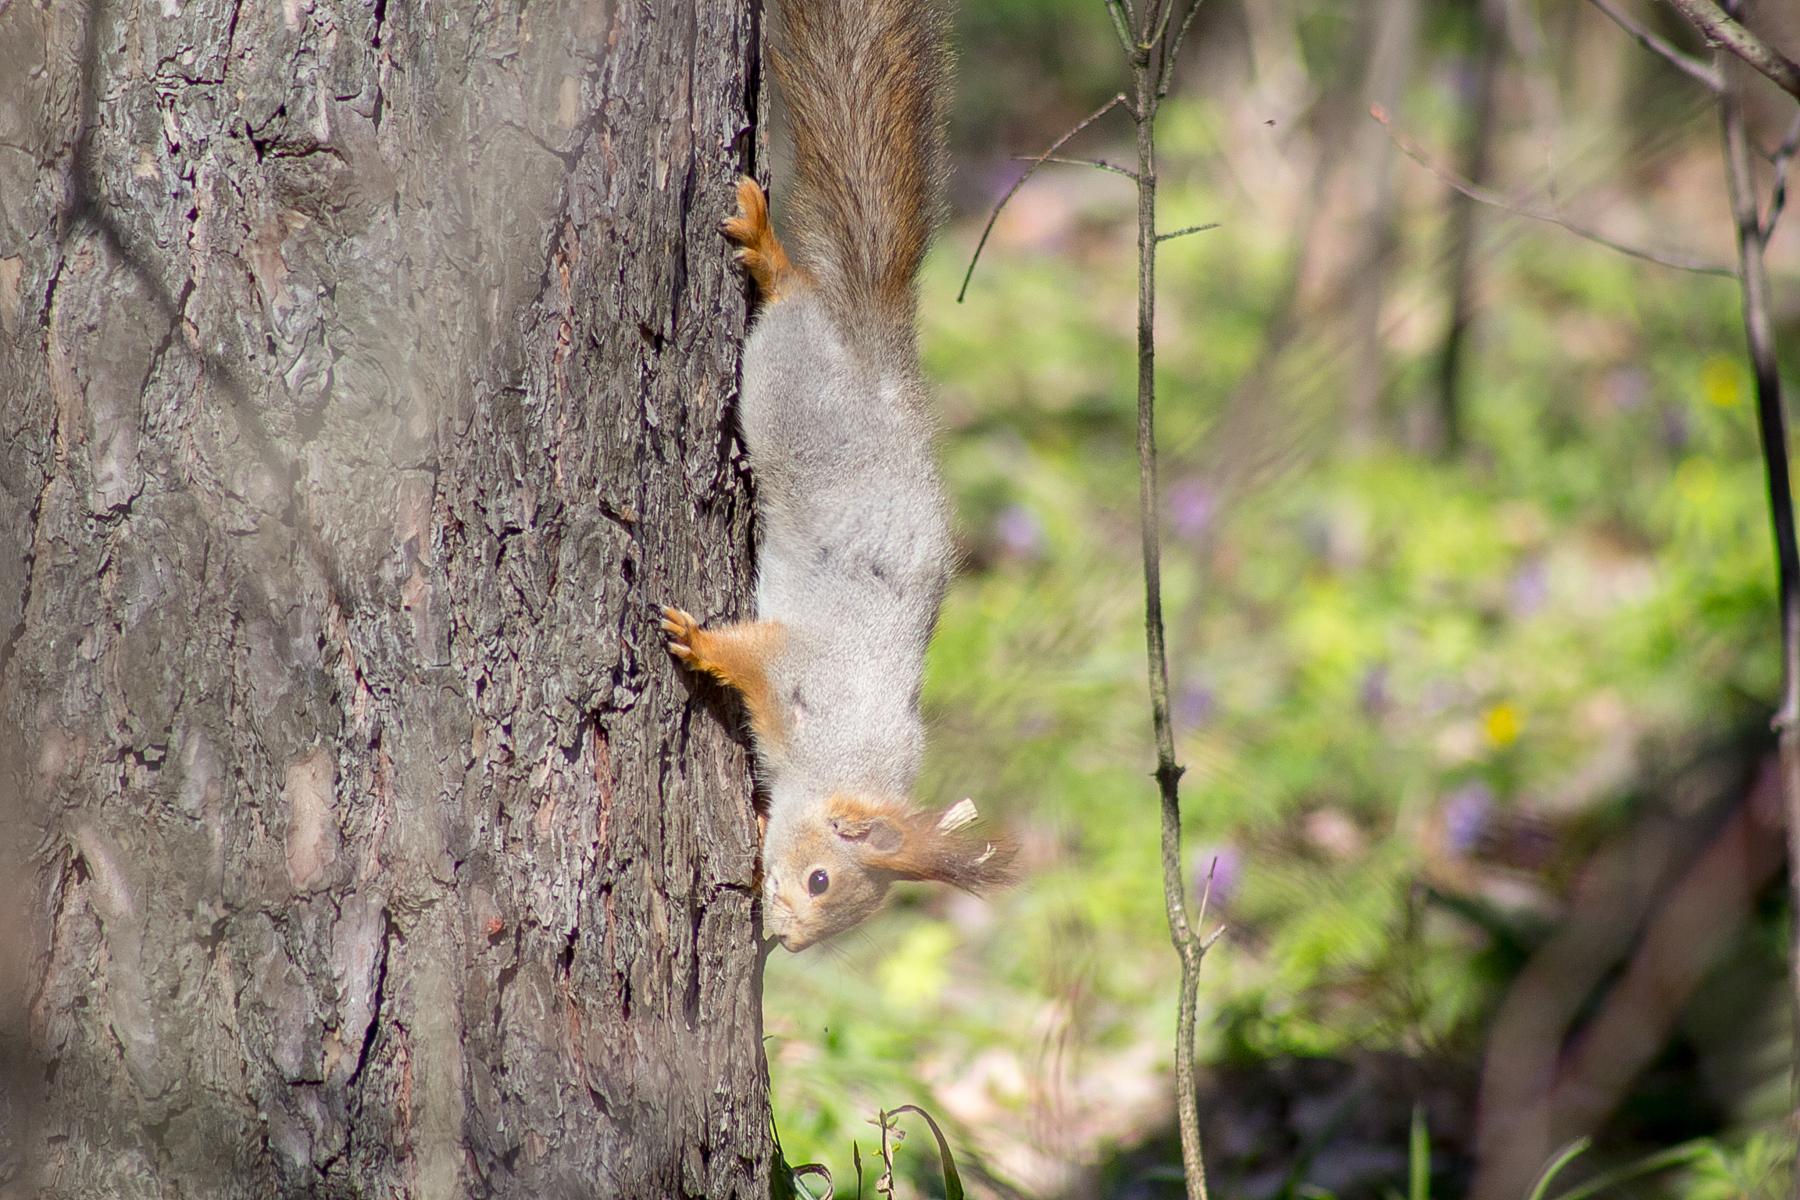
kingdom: Animalia
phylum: Chordata
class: Mammalia
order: Rodentia
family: Sciuridae
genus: Sciurus
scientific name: Sciurus vulgaris
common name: Eurasian red squirrel
